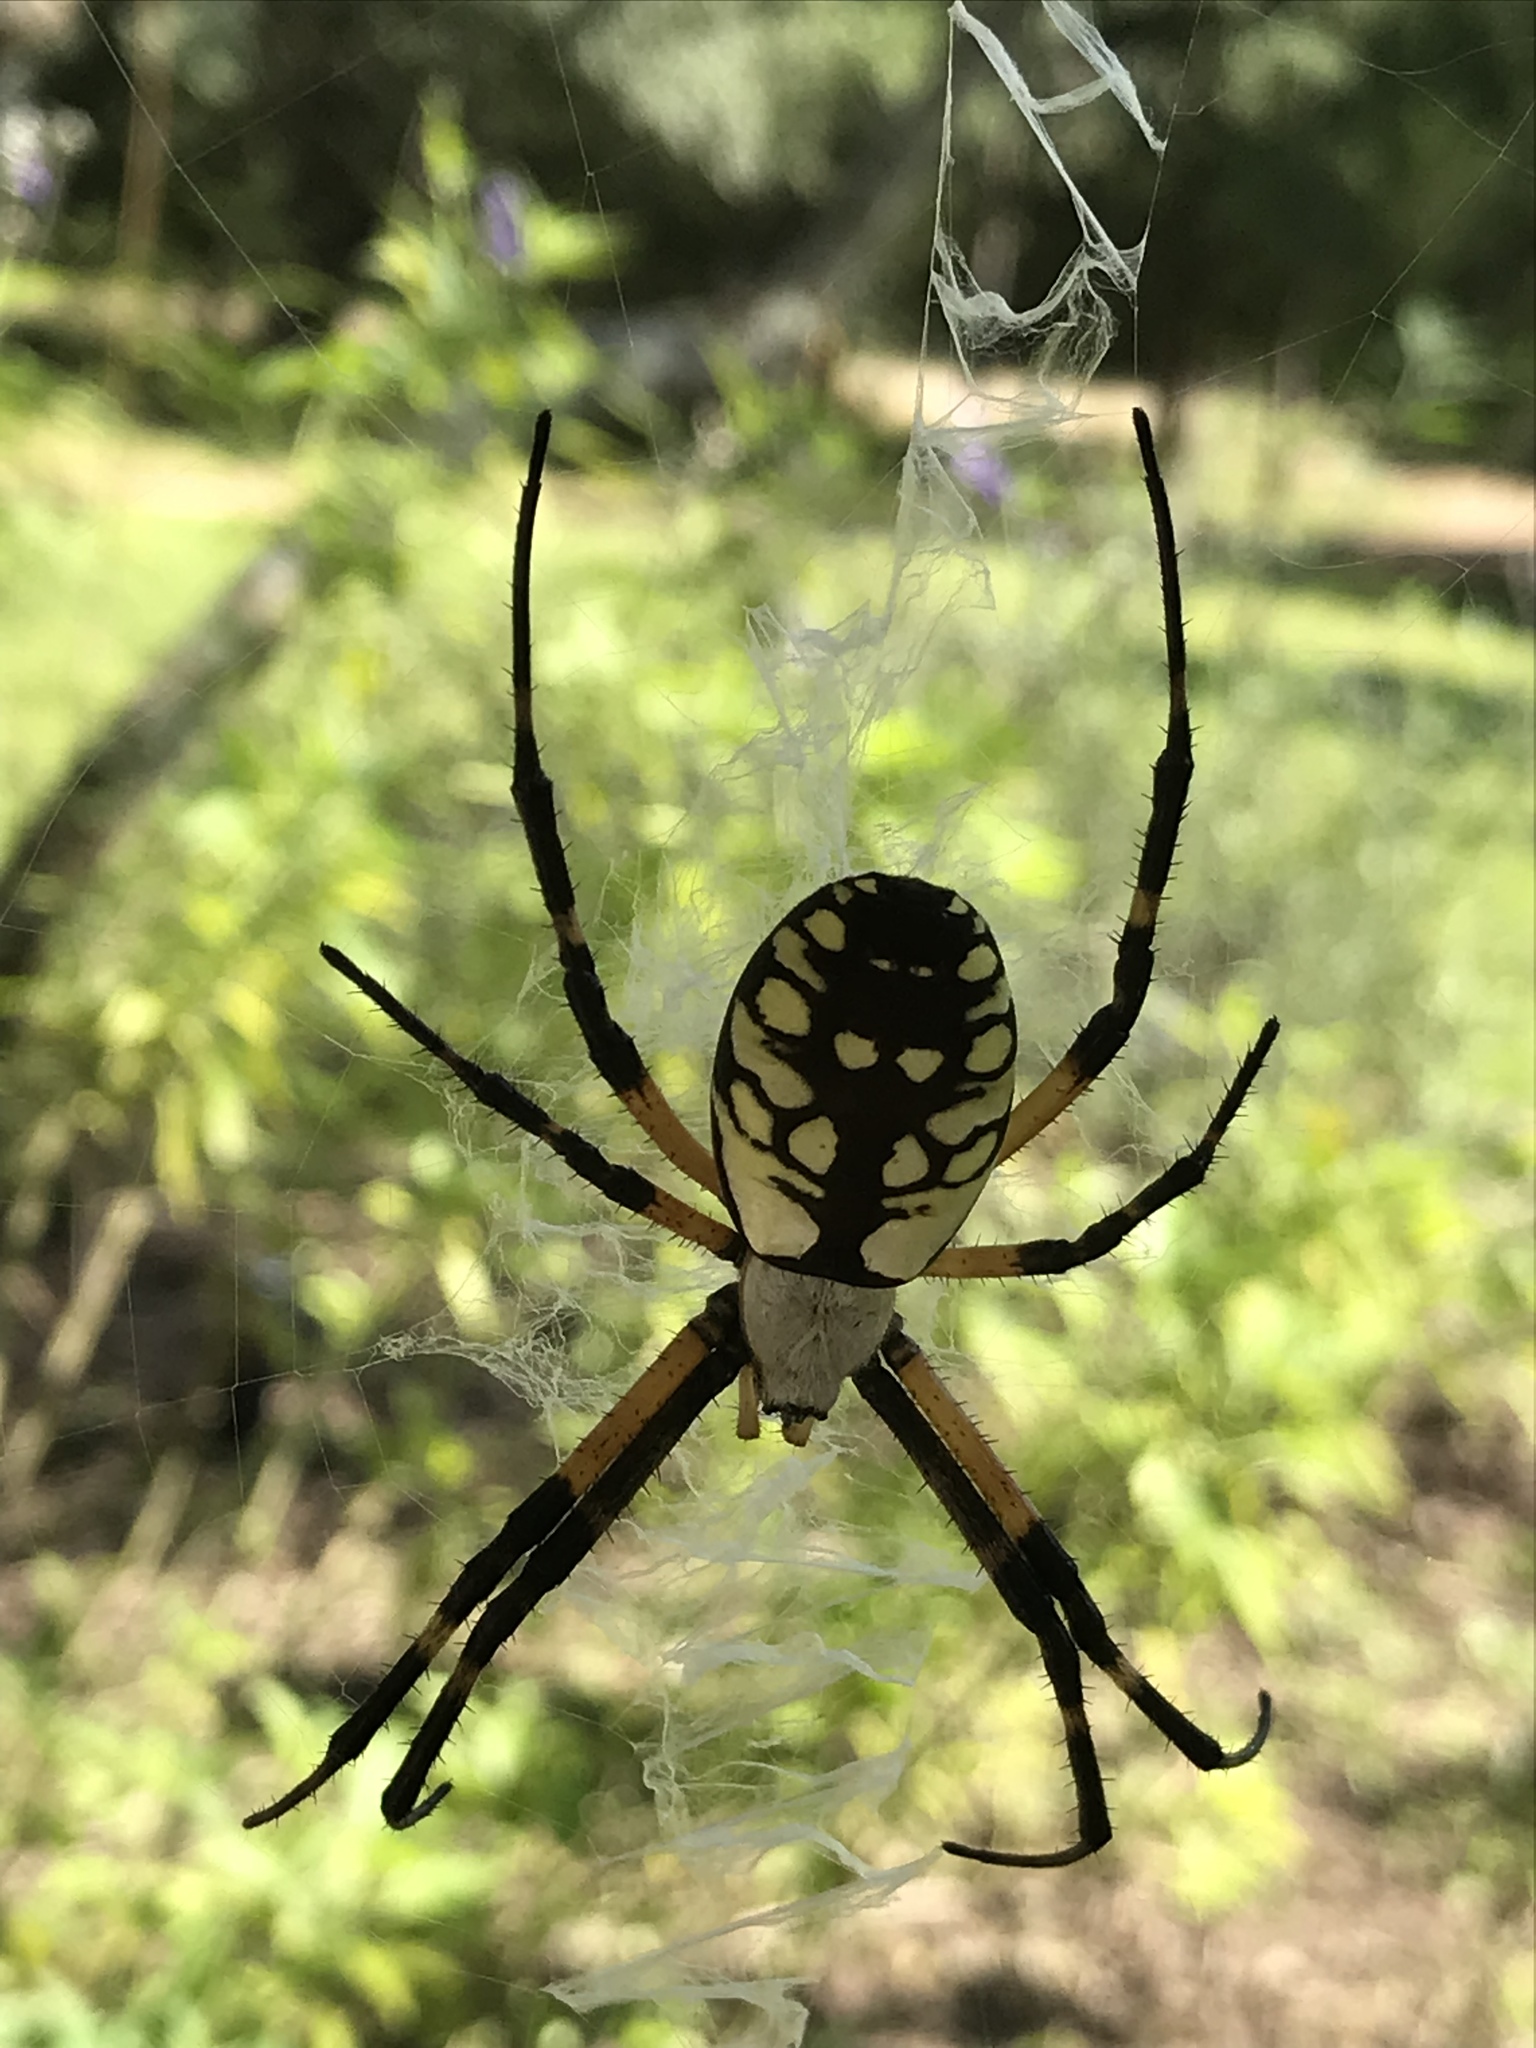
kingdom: Animalia
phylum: Arthropoda
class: Arachnida
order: Araneae
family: Araneidae
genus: Argiope
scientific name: Argiope aurantia
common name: Orb weavers
